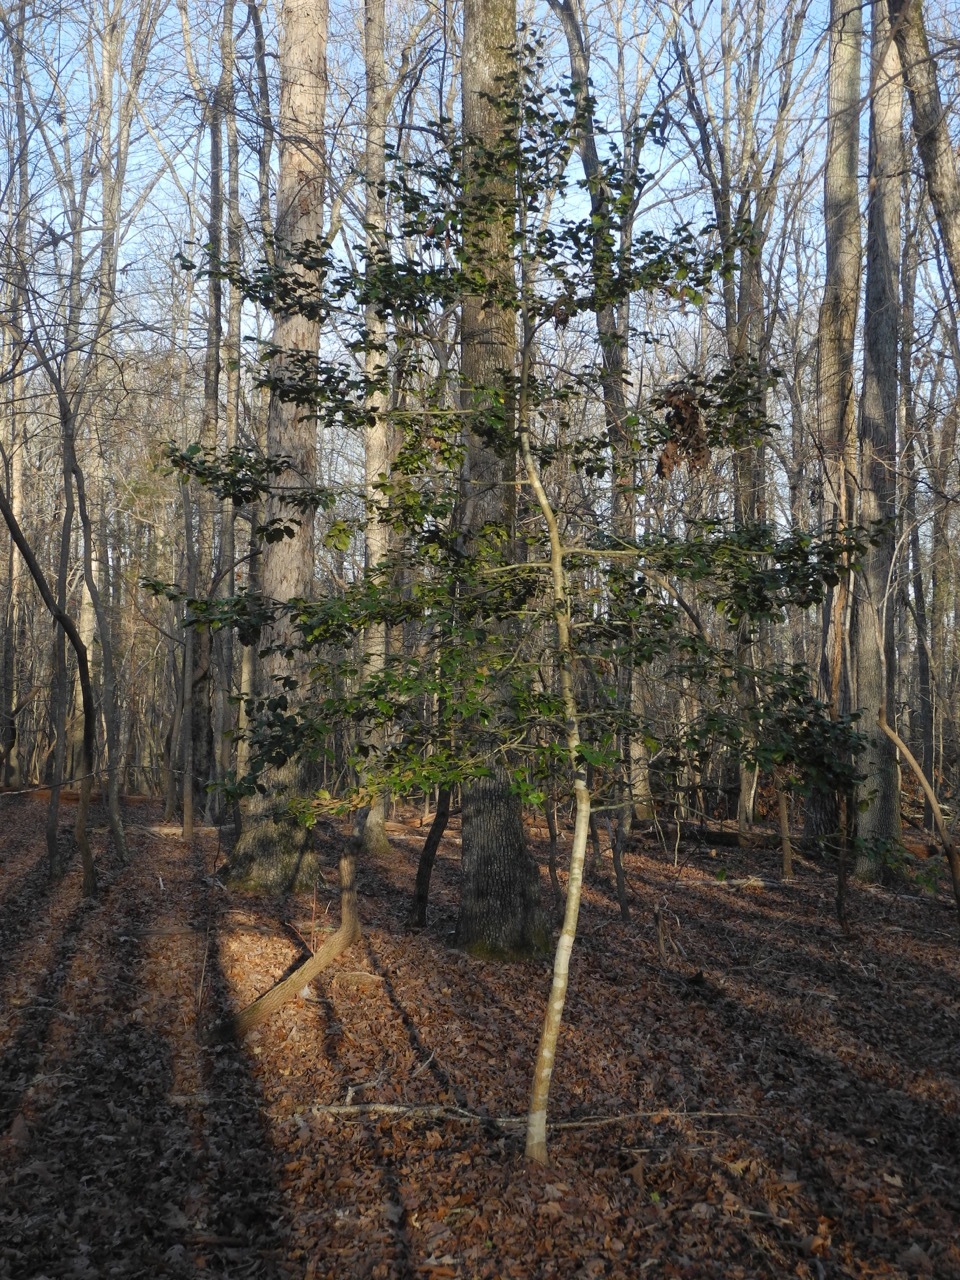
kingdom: Plantae
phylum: Tracheophyta
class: Magnoliopsida
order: Aquifoliales
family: Aquifoliaceae
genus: Ilex
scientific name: Ilex opaca
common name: American holly
